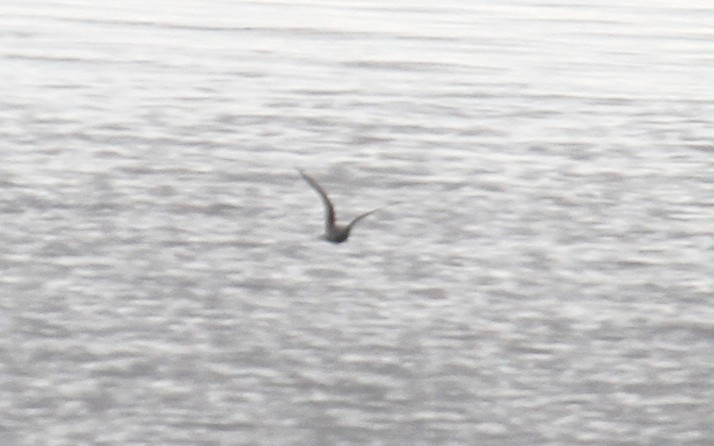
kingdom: Animalia
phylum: Chordata
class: Aves
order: Procellariiformes
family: Hydrobatidae
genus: Oceanodroma
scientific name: Oceanodroma furcata
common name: Fork-tailed storm-petrel
